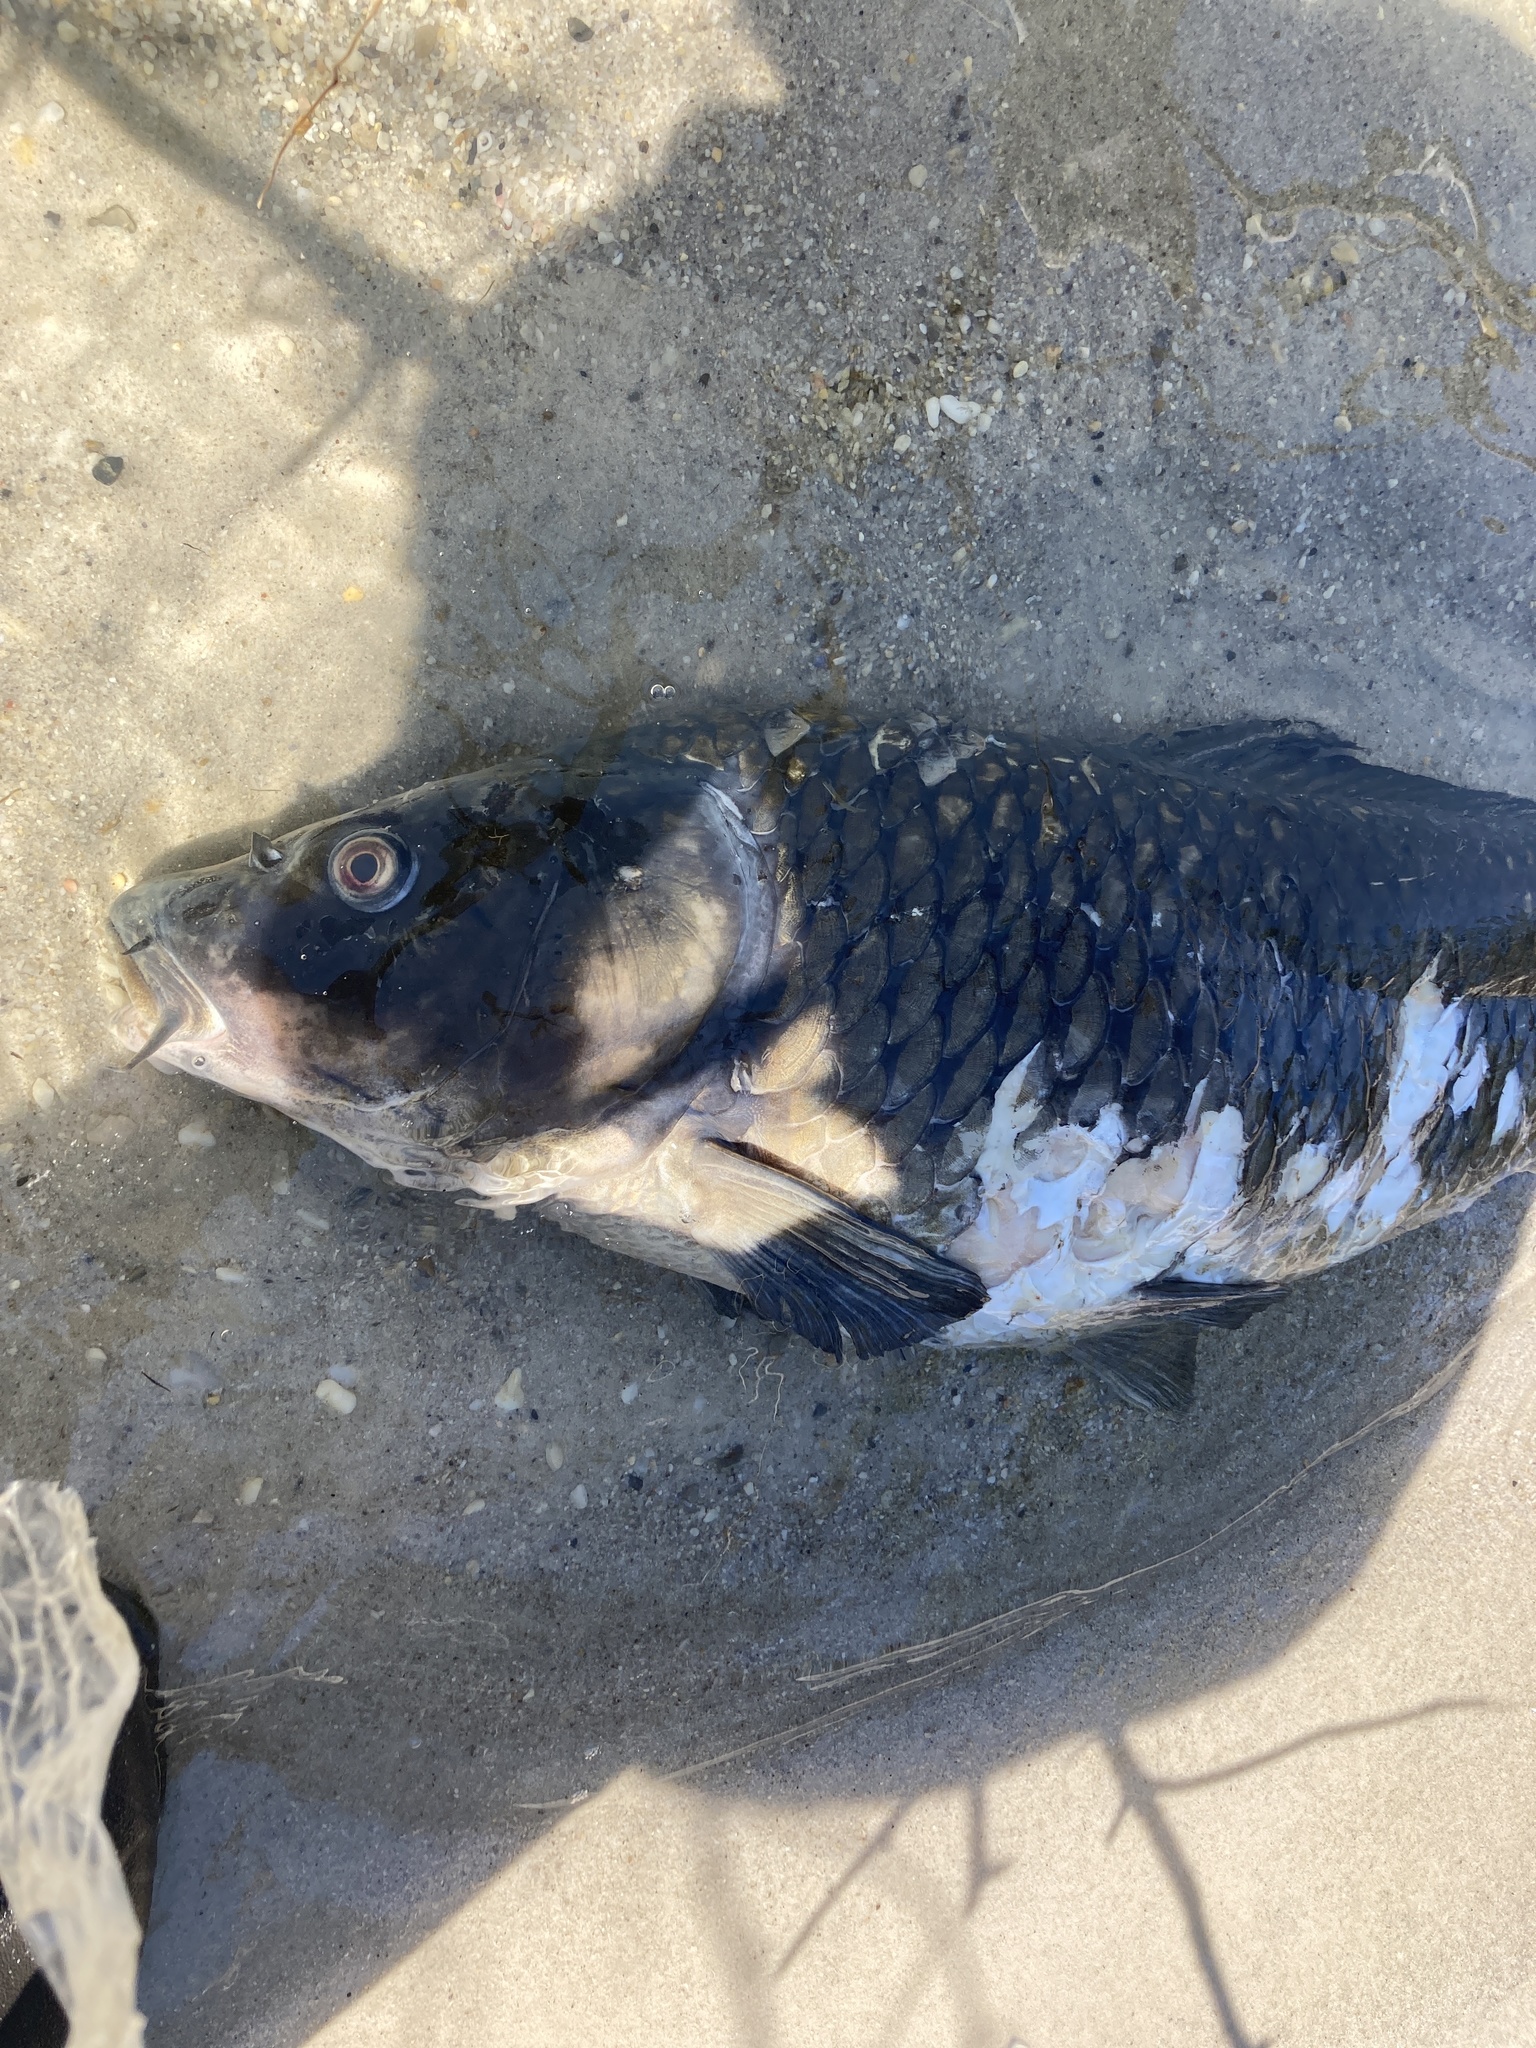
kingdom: Animalia
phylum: Chordata
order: Cypriniformes
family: Cyprinidae
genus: Cyprinus
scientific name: Cyprinus carpio
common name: Common carp
